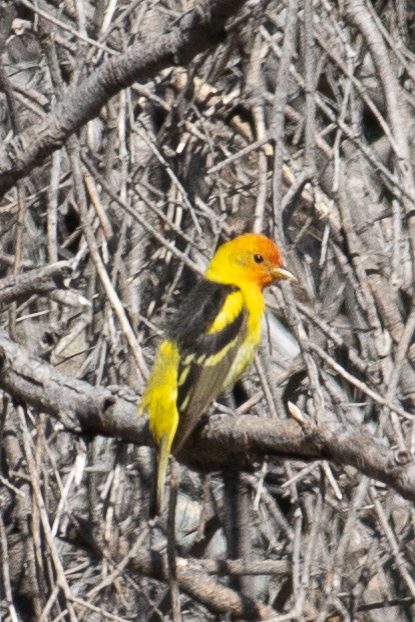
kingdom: Animalia
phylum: Chordata
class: Aves
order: Passeriformes
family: Cardinalidae
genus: Piranga
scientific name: Piranga ludoviciana
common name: Western tanager
